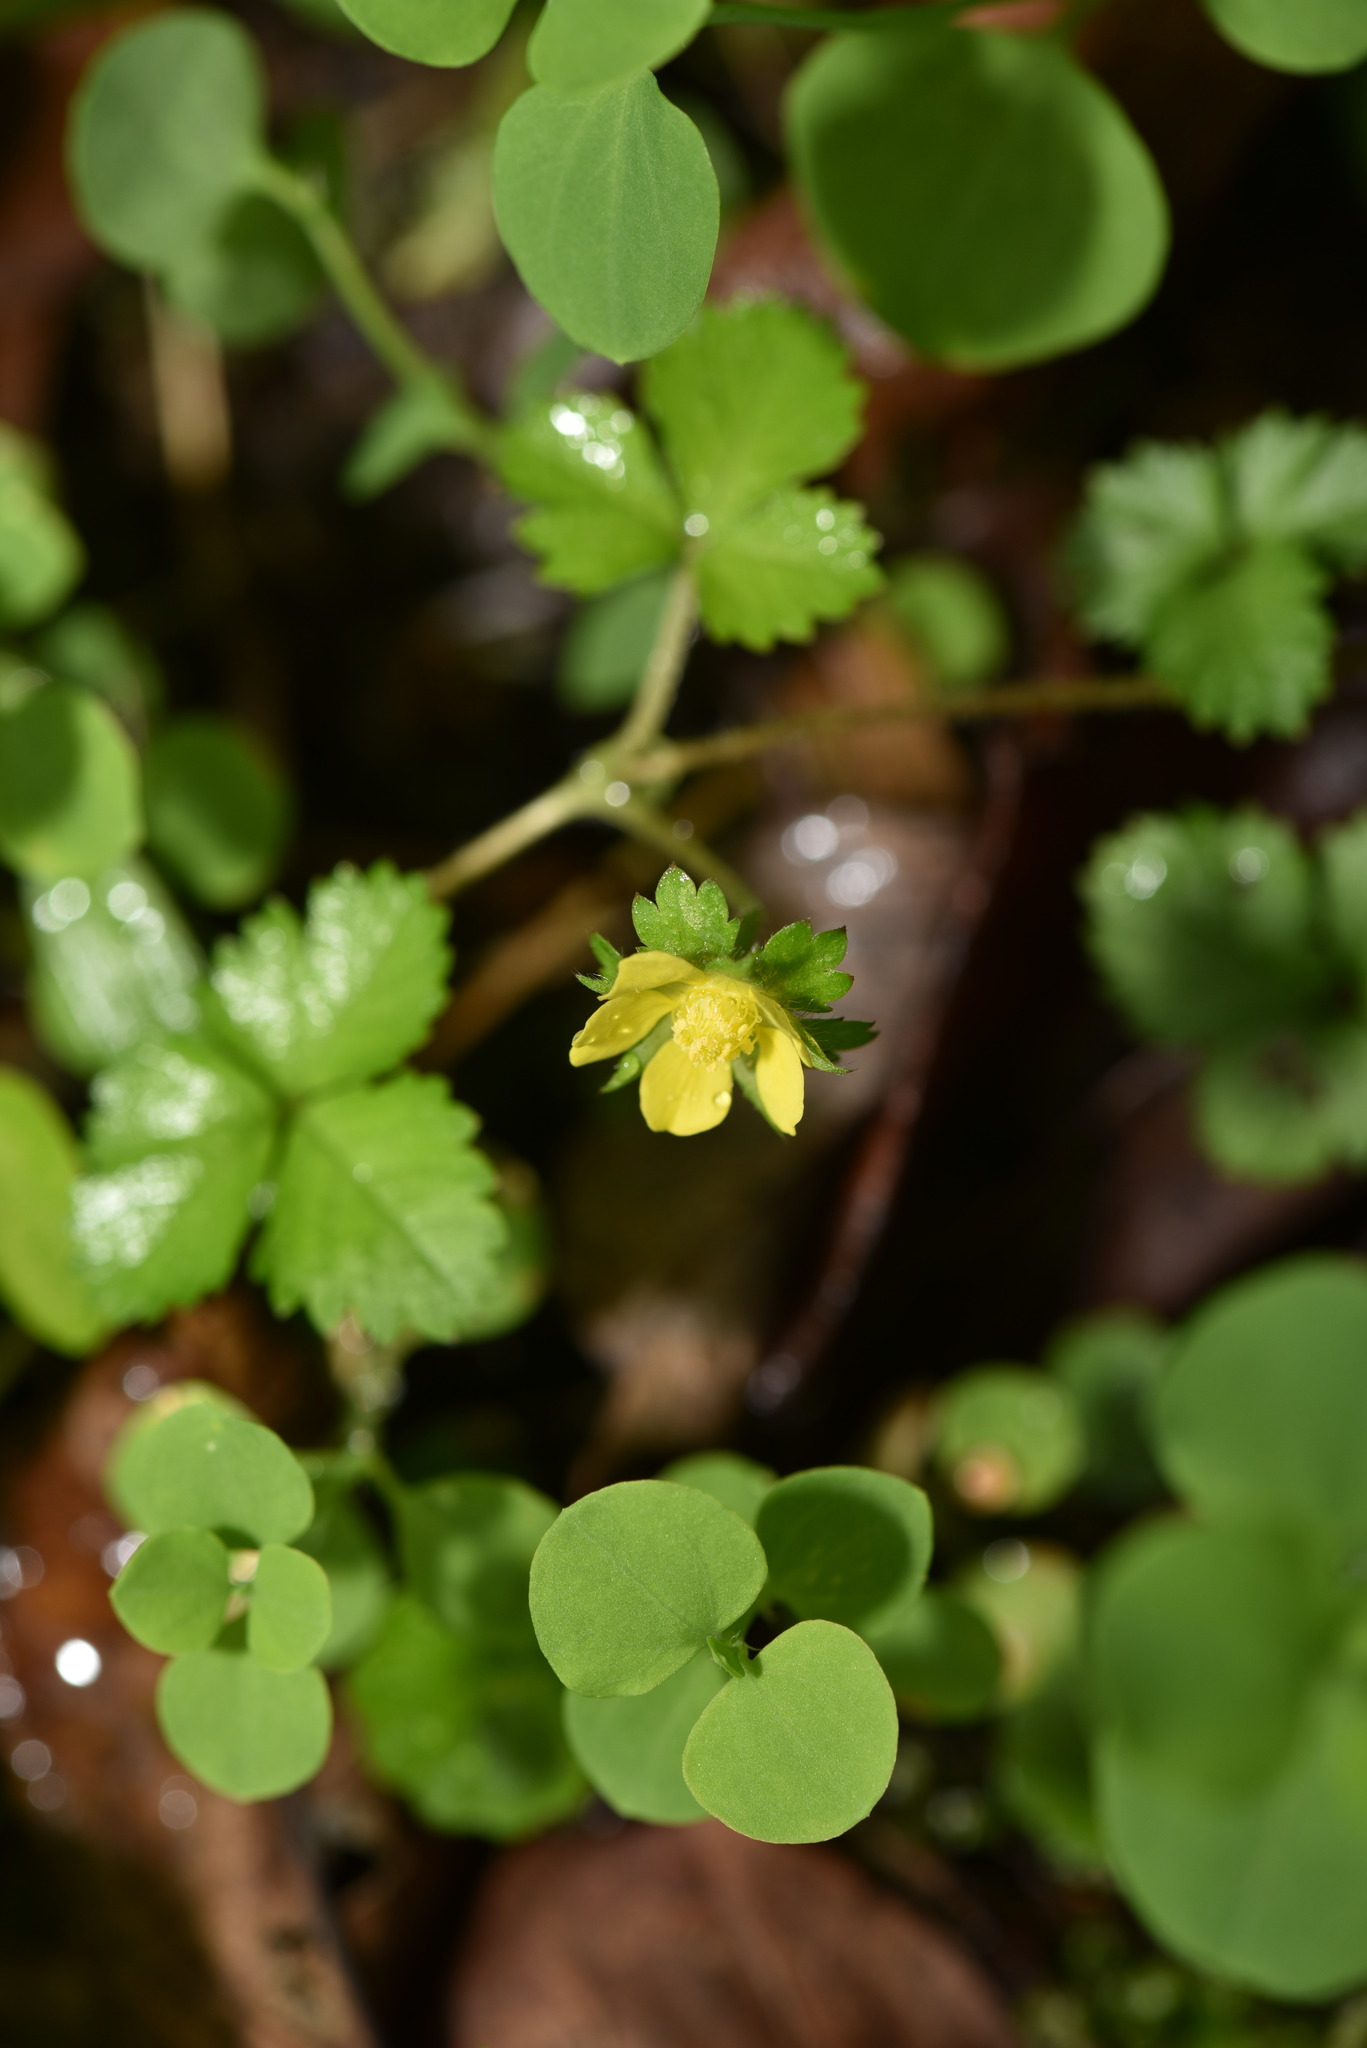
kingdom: Plantae
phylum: Tracheophyta
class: Magnoliopsida
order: Rosales
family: Rosaceae
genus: Potentilla
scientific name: Potentilla wallichiana
